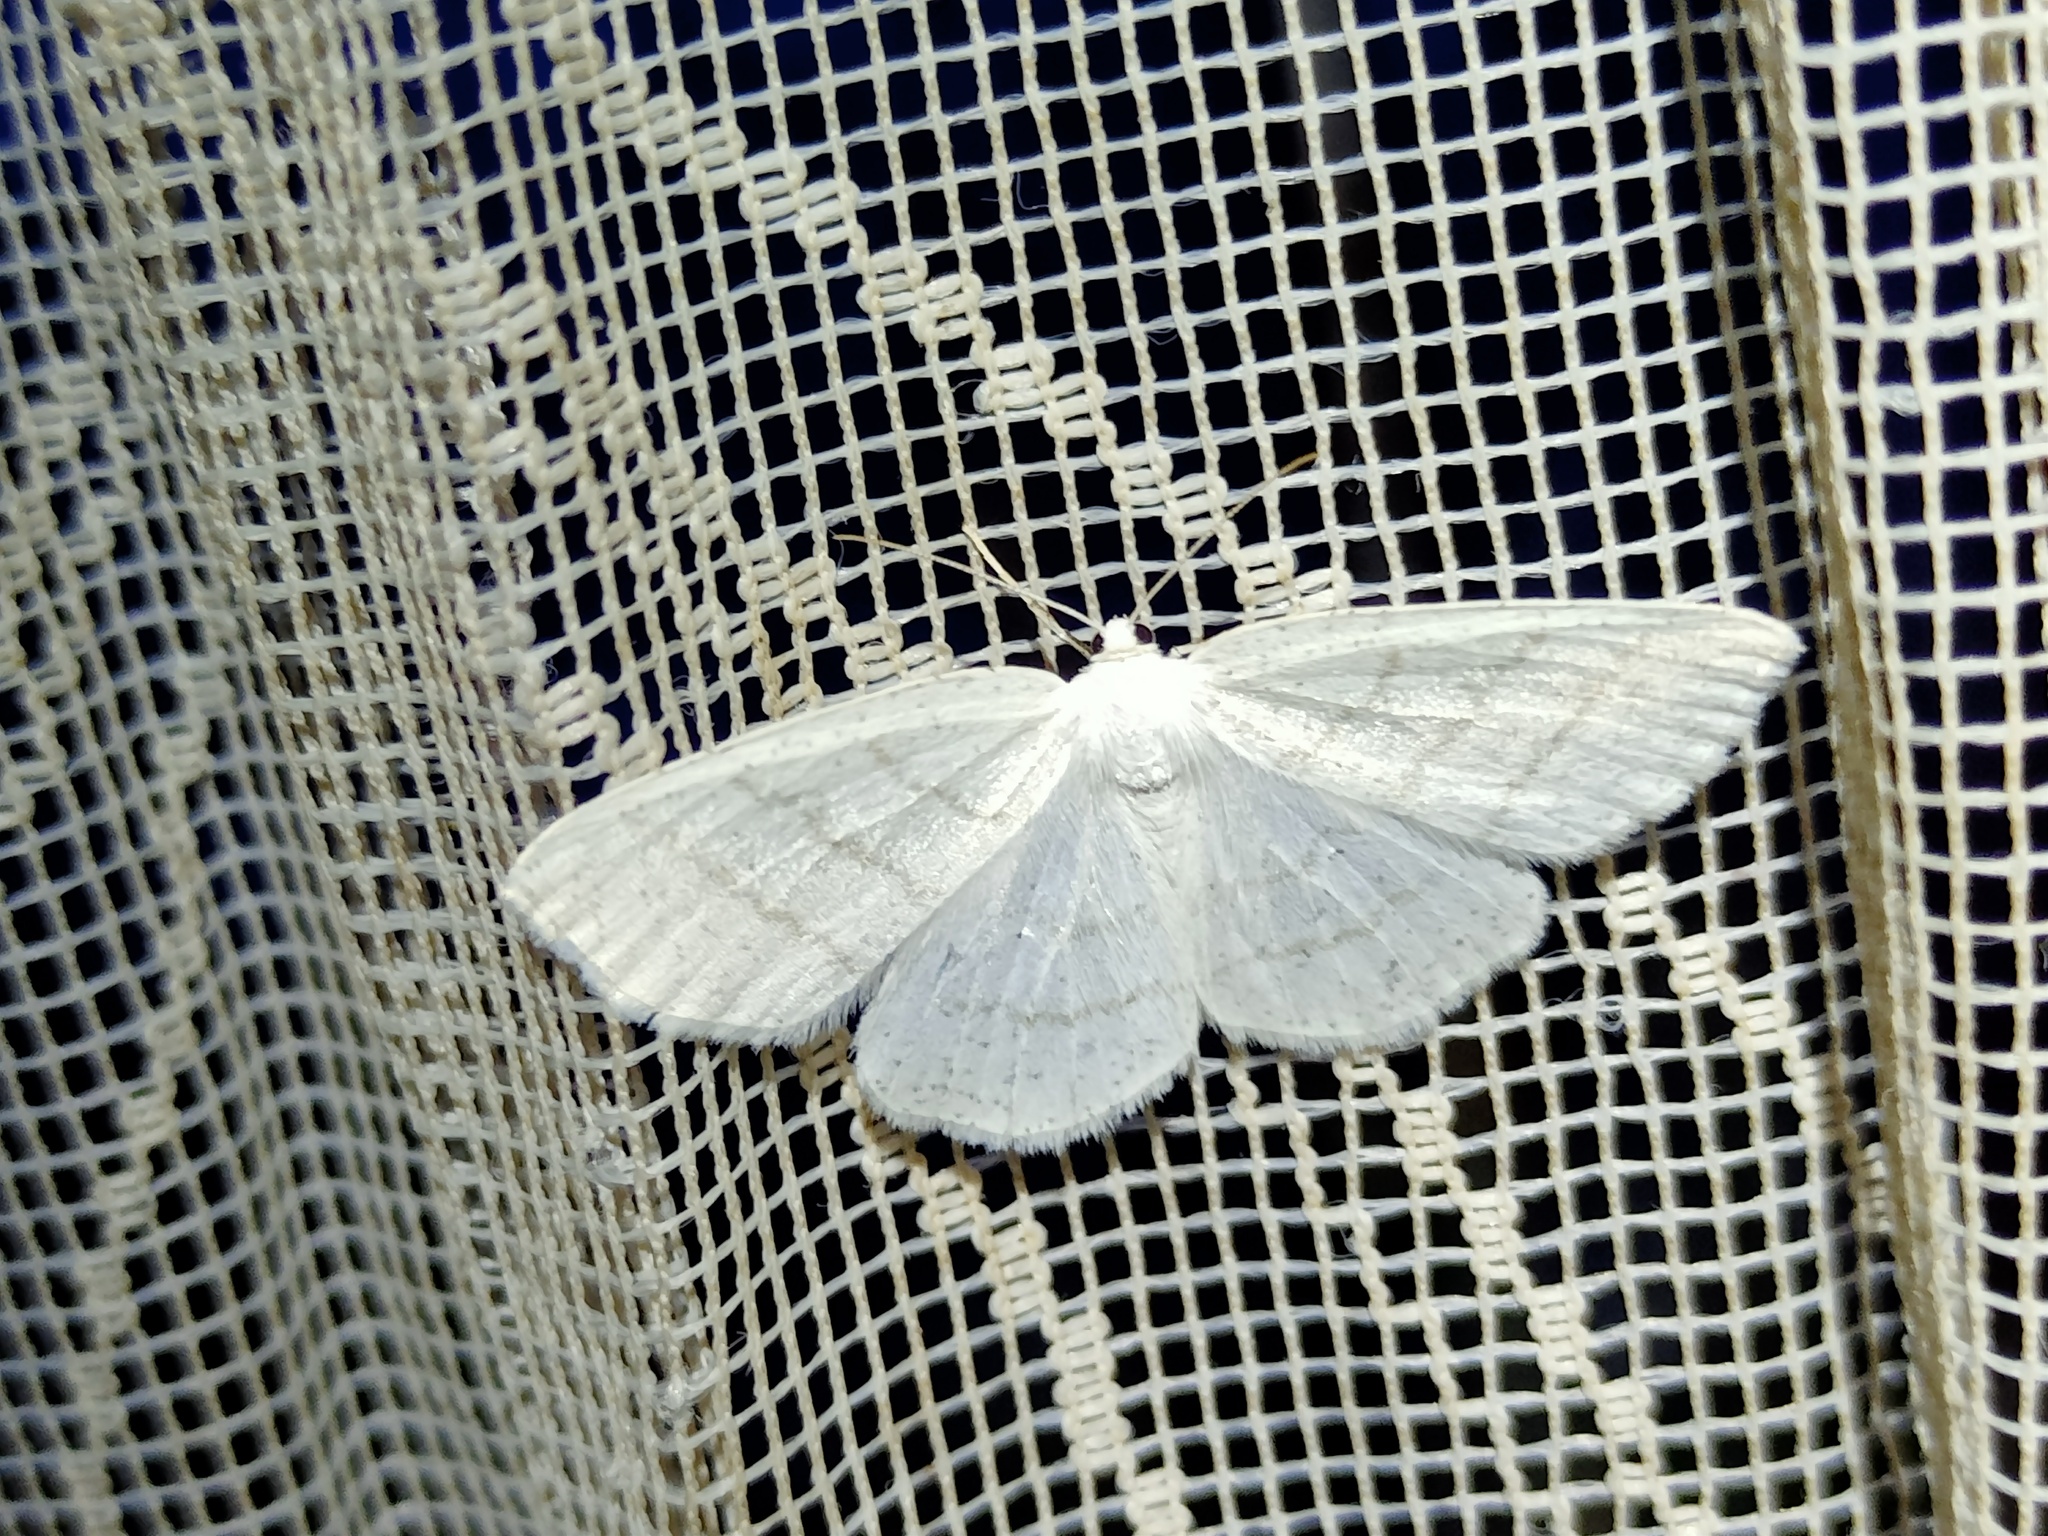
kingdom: Animalia
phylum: Arthropoda
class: Insecta
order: Lepidoptera
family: Geometridae
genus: Cabera
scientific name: Cabera pusaria
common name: Common white wave
